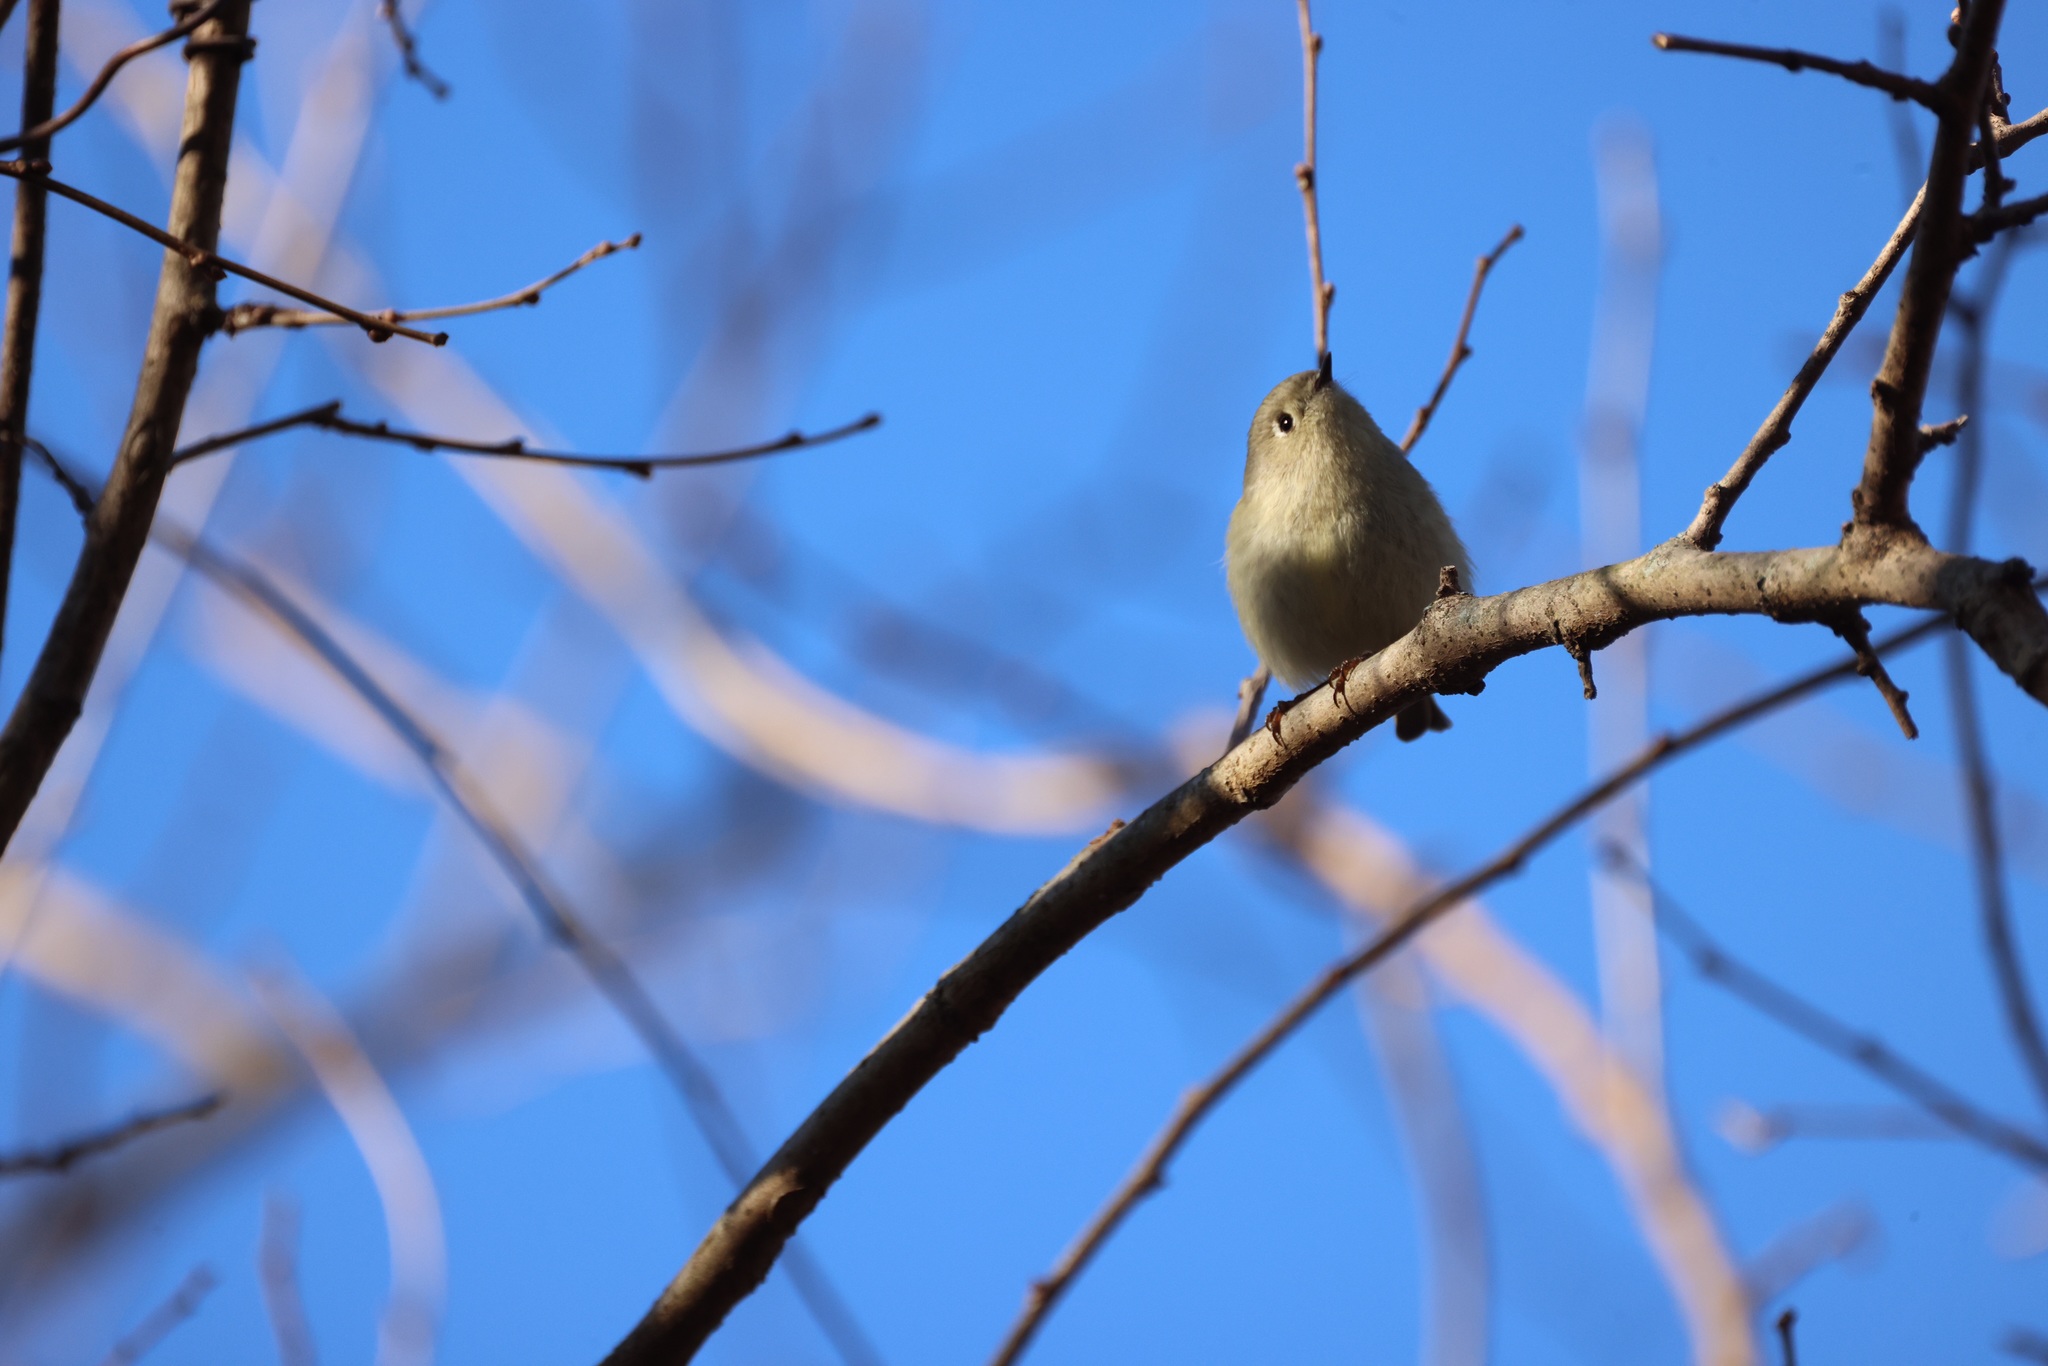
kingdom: Animalia
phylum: Chordata
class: Aves
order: Passeriformes
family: Regulidae
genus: Regulus
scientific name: Regulus calendula
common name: Ruby-crowned kinglet
